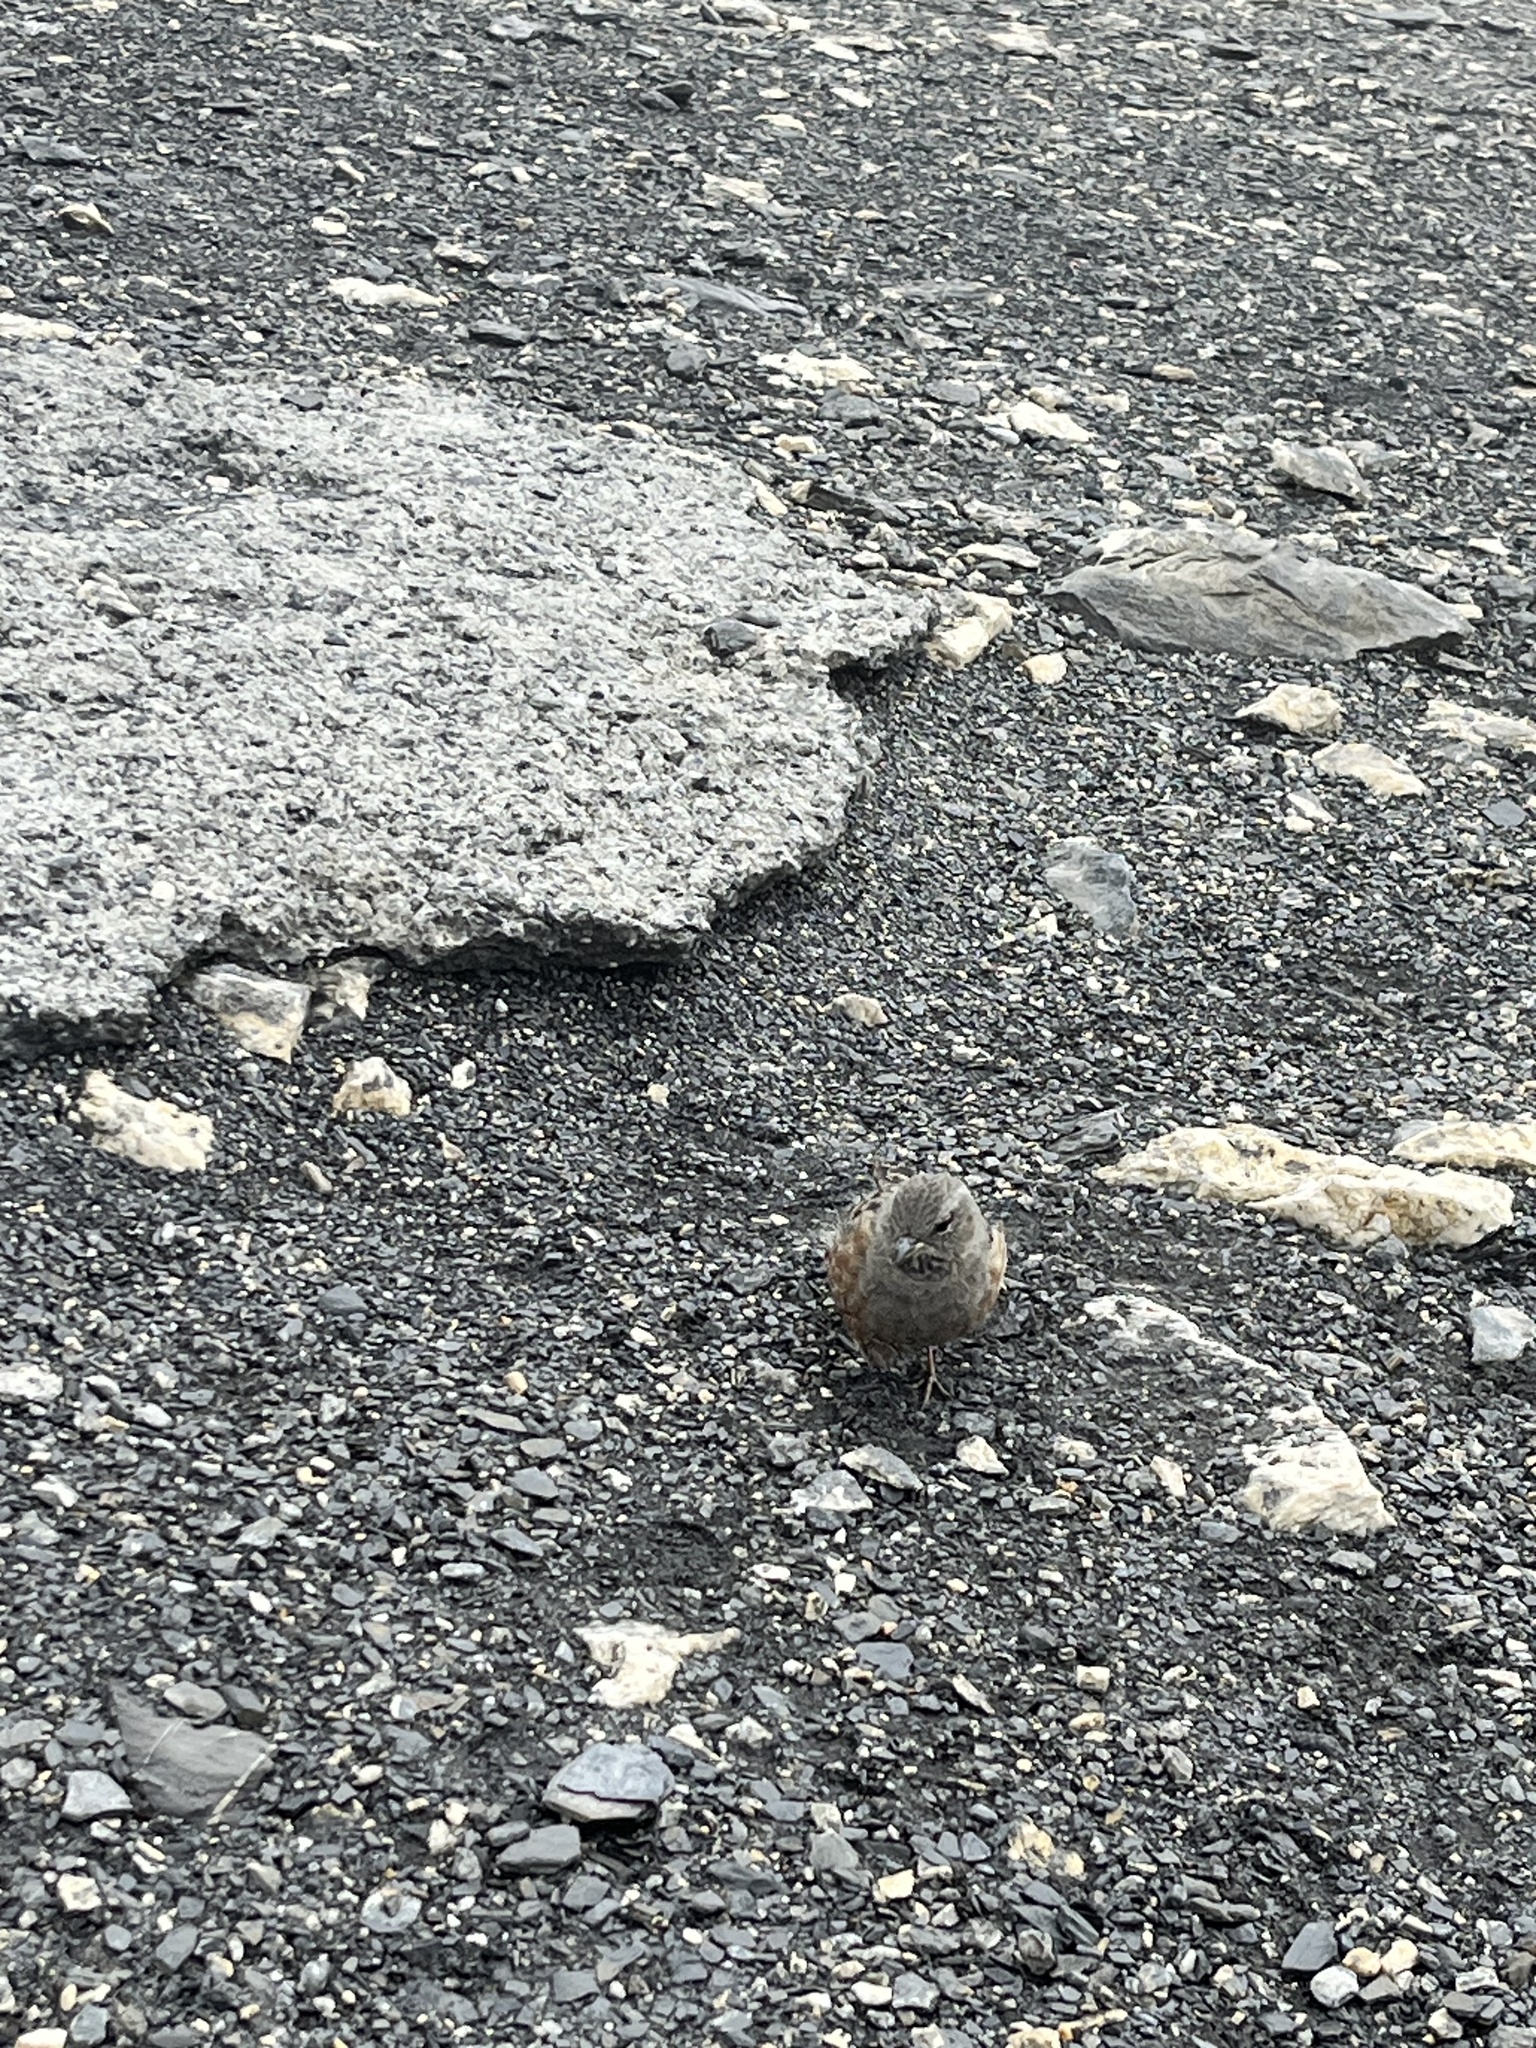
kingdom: Animalia
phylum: Chordata
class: Aves
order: Passeriformes
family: Prunellidae
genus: Prunella
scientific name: Prunella collaris
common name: Alpine accentor
